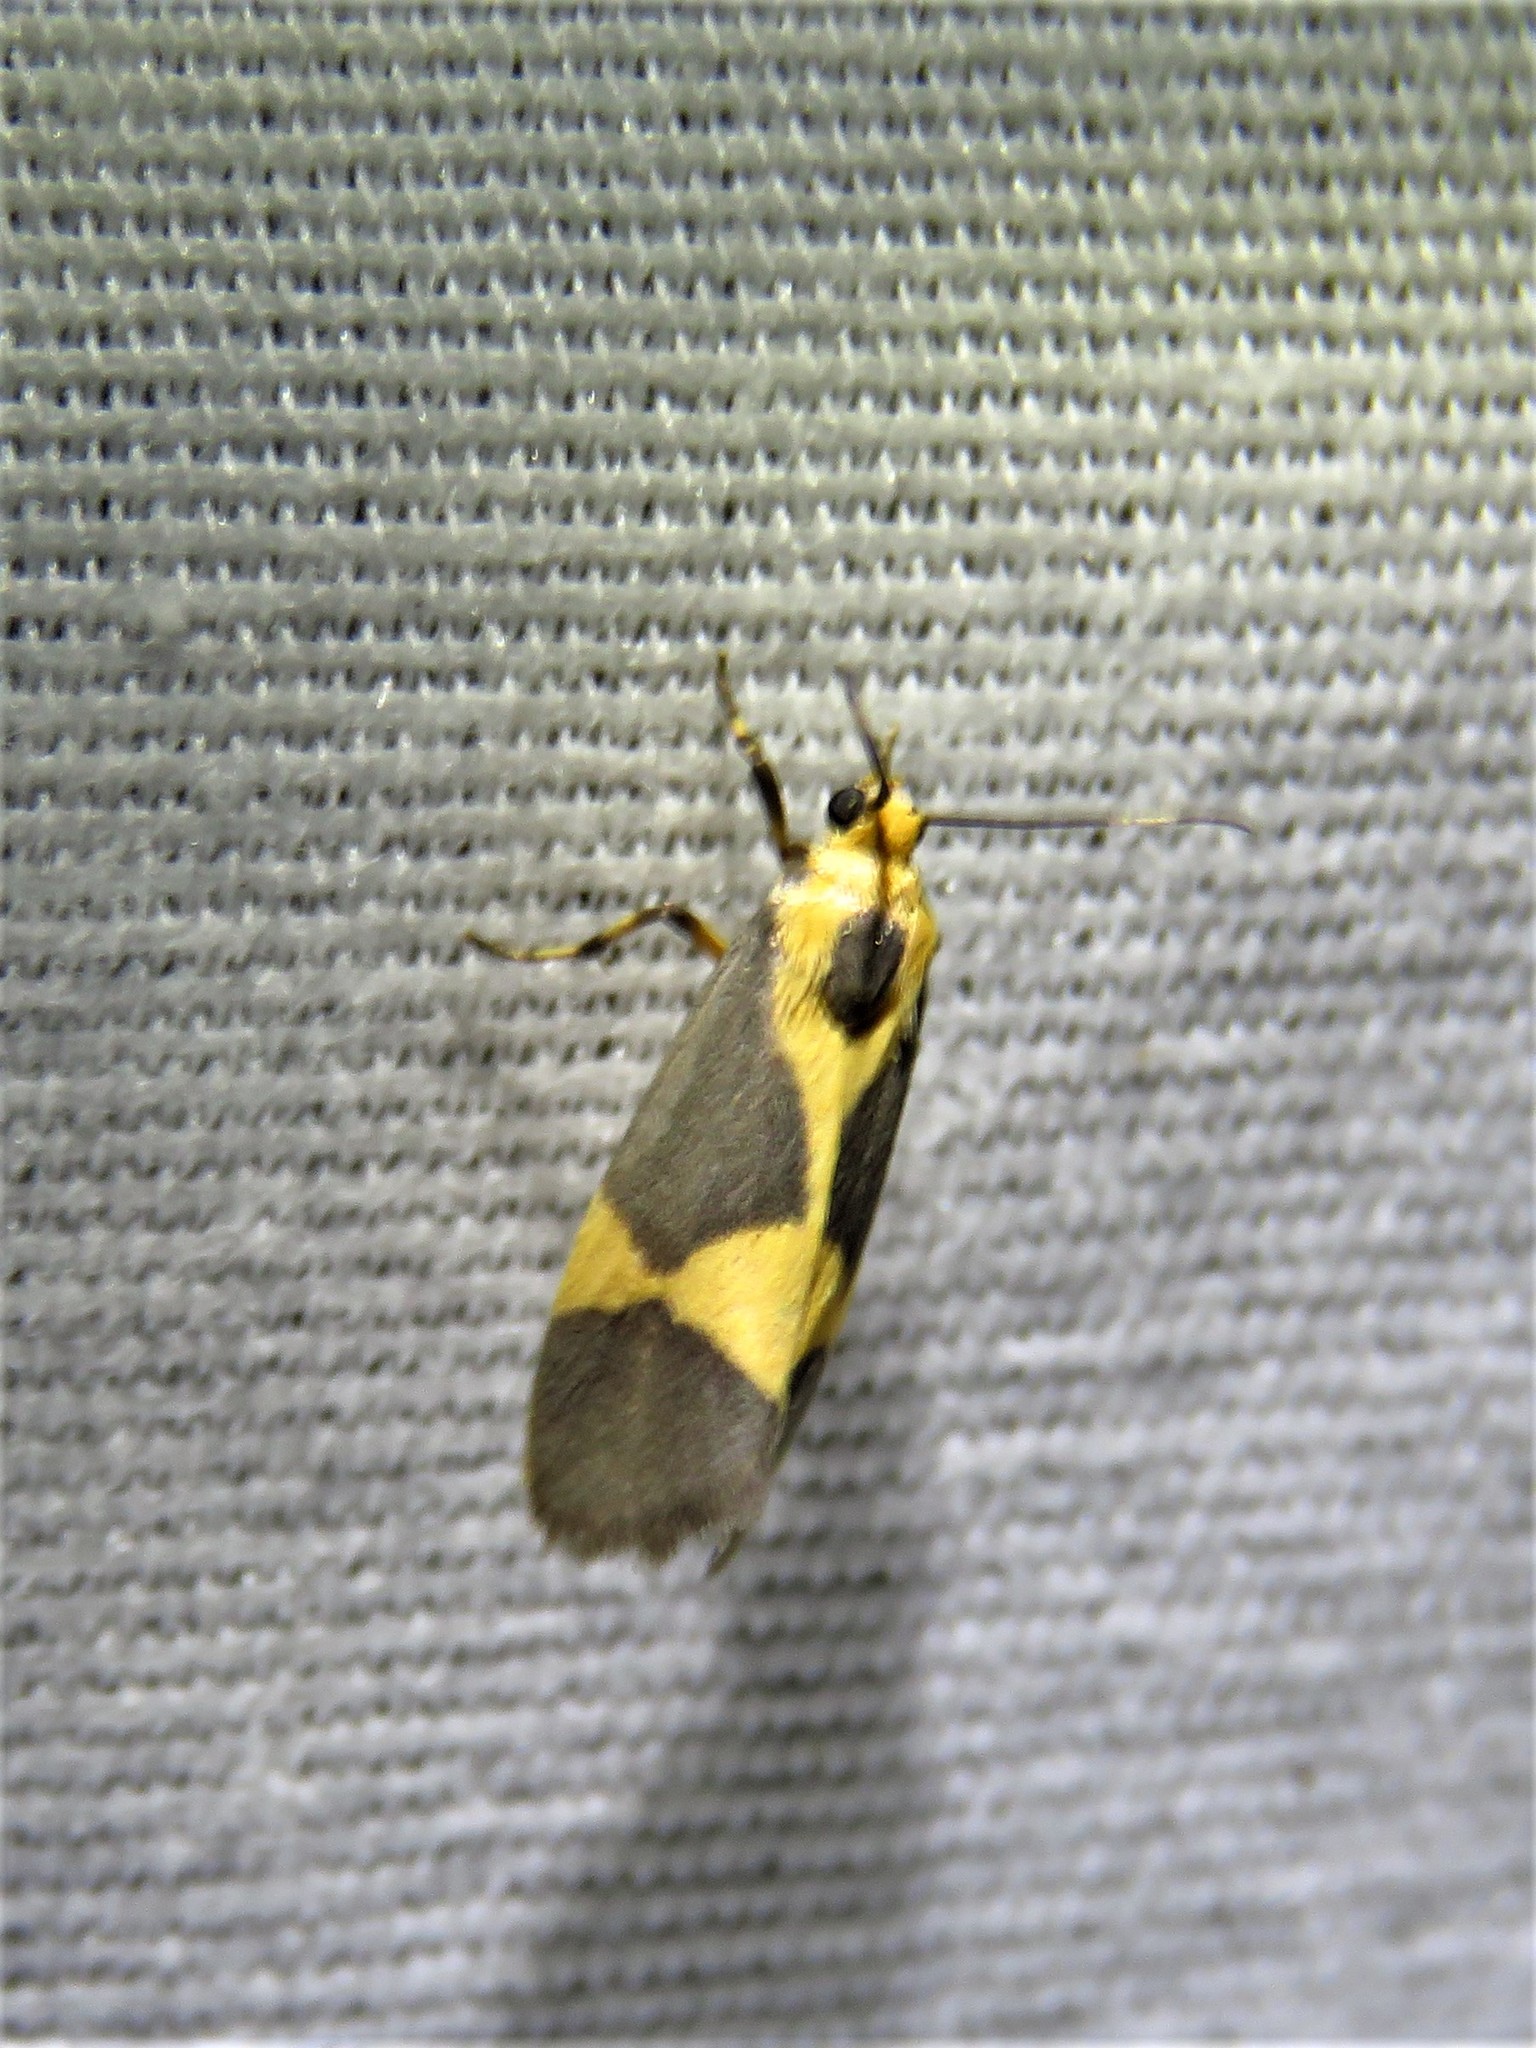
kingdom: Animalia
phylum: Arthropoda
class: Insecta
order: Lepidoptera
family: Erebidae
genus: Cisthene
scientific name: Cisthene unifascia
